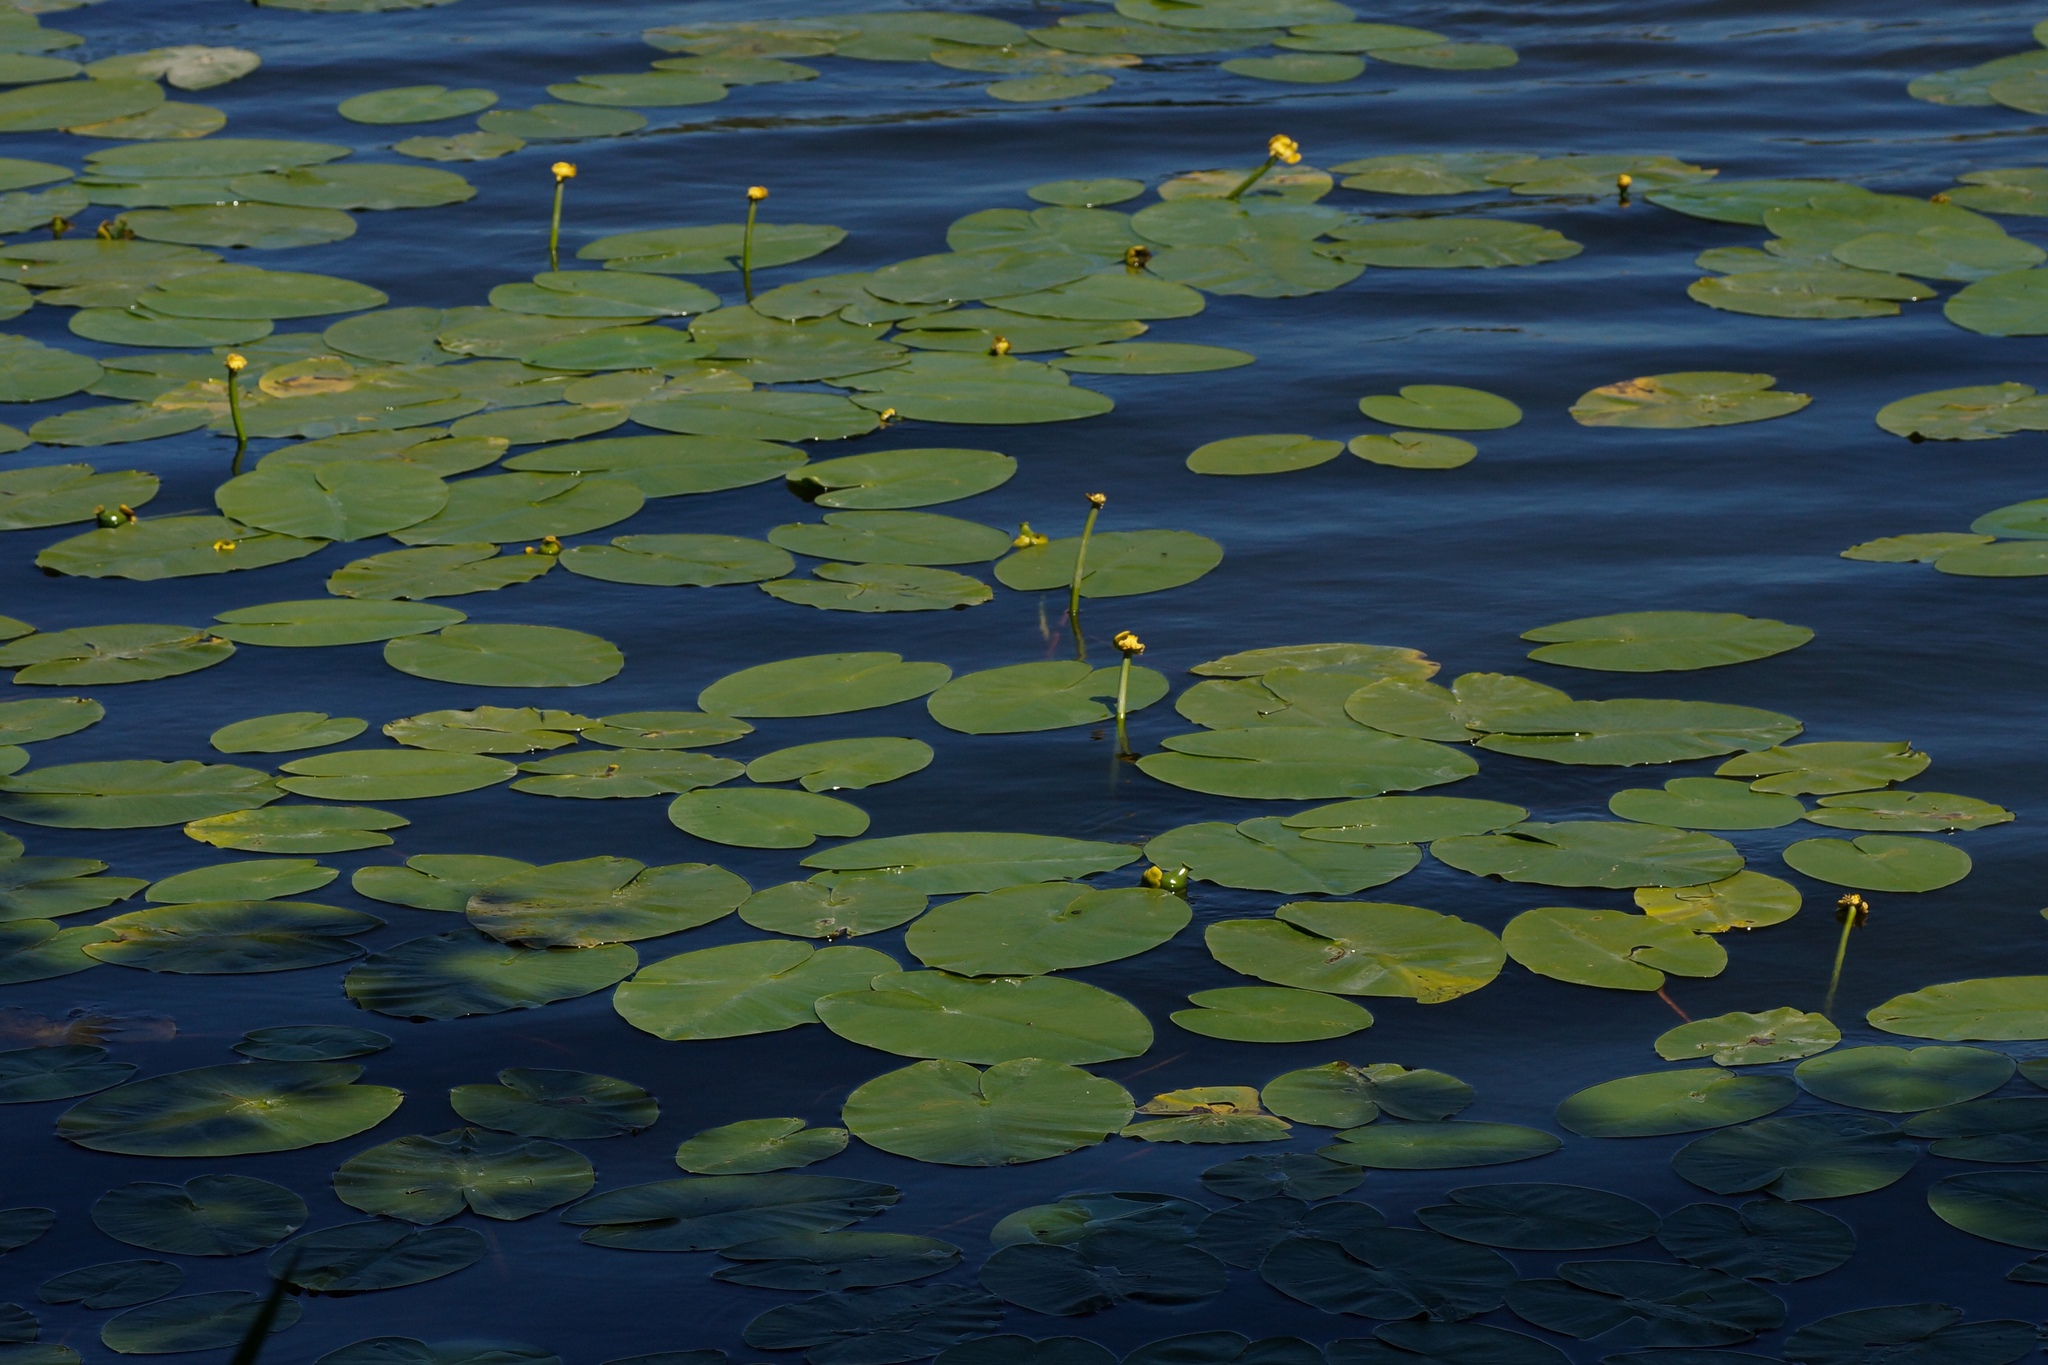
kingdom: Plantae
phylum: Tracheophyta
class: Magnoliopsida
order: Nymphaeales
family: Nymphaeaceae
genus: Nuphar
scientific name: Nuphar lutea
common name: Yellow water-lily
